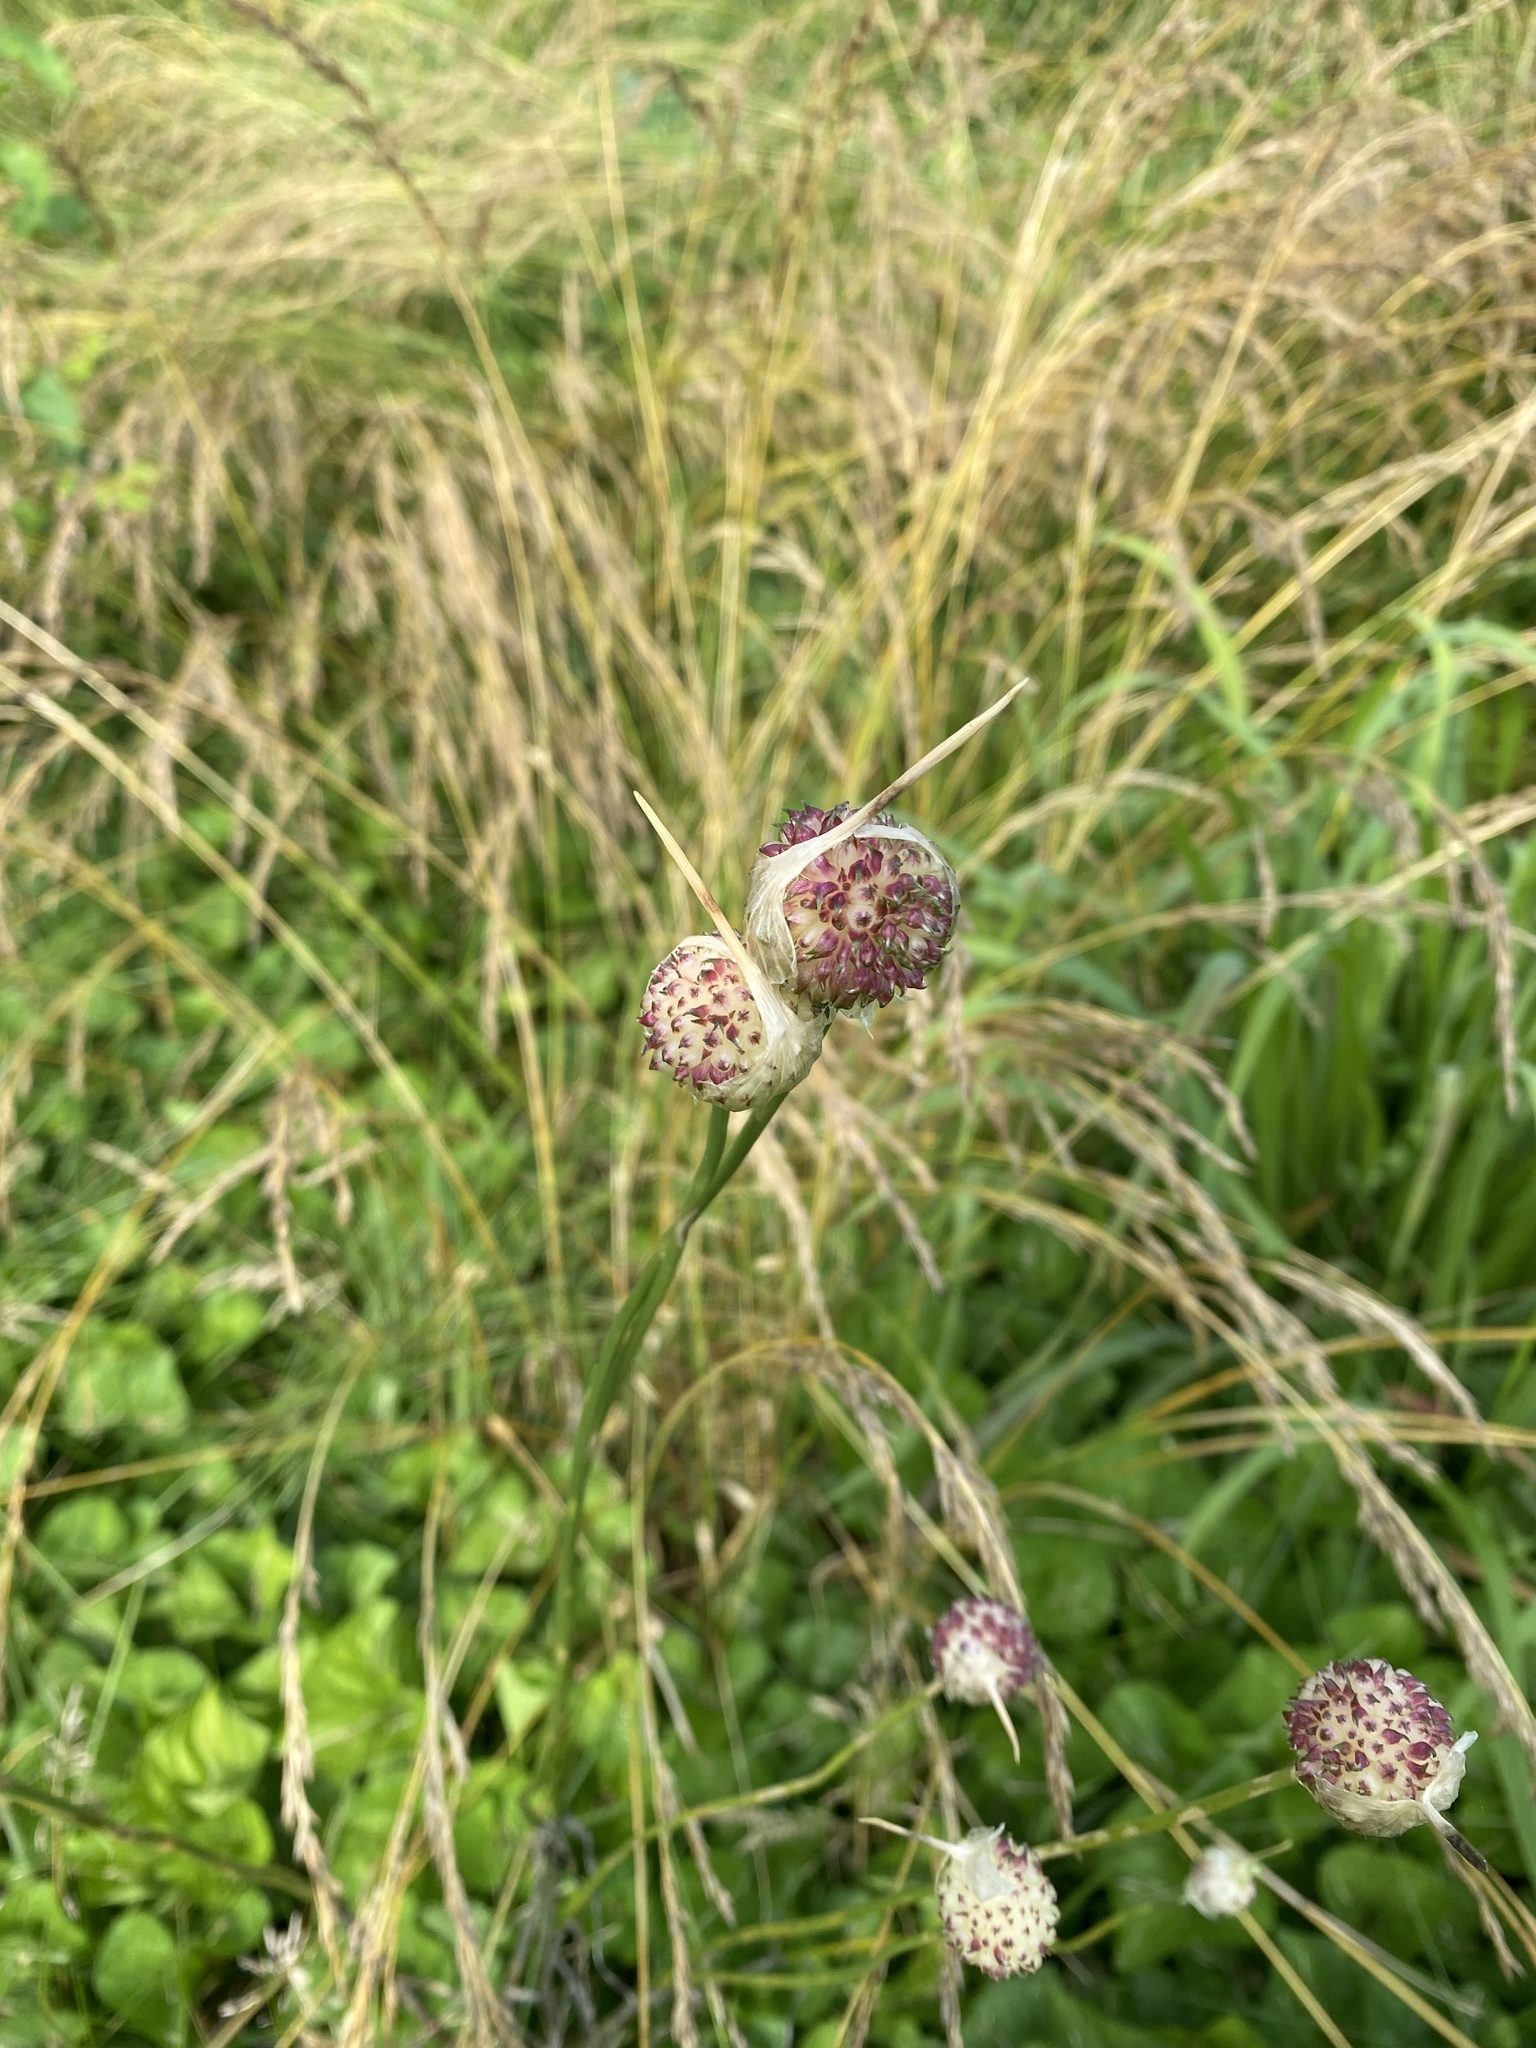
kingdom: Plantae
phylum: Tracheophyta
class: Liliopsida
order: Asparagales
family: Amaryllidaceae
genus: Allium
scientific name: Allium vineale
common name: Crow garlic
